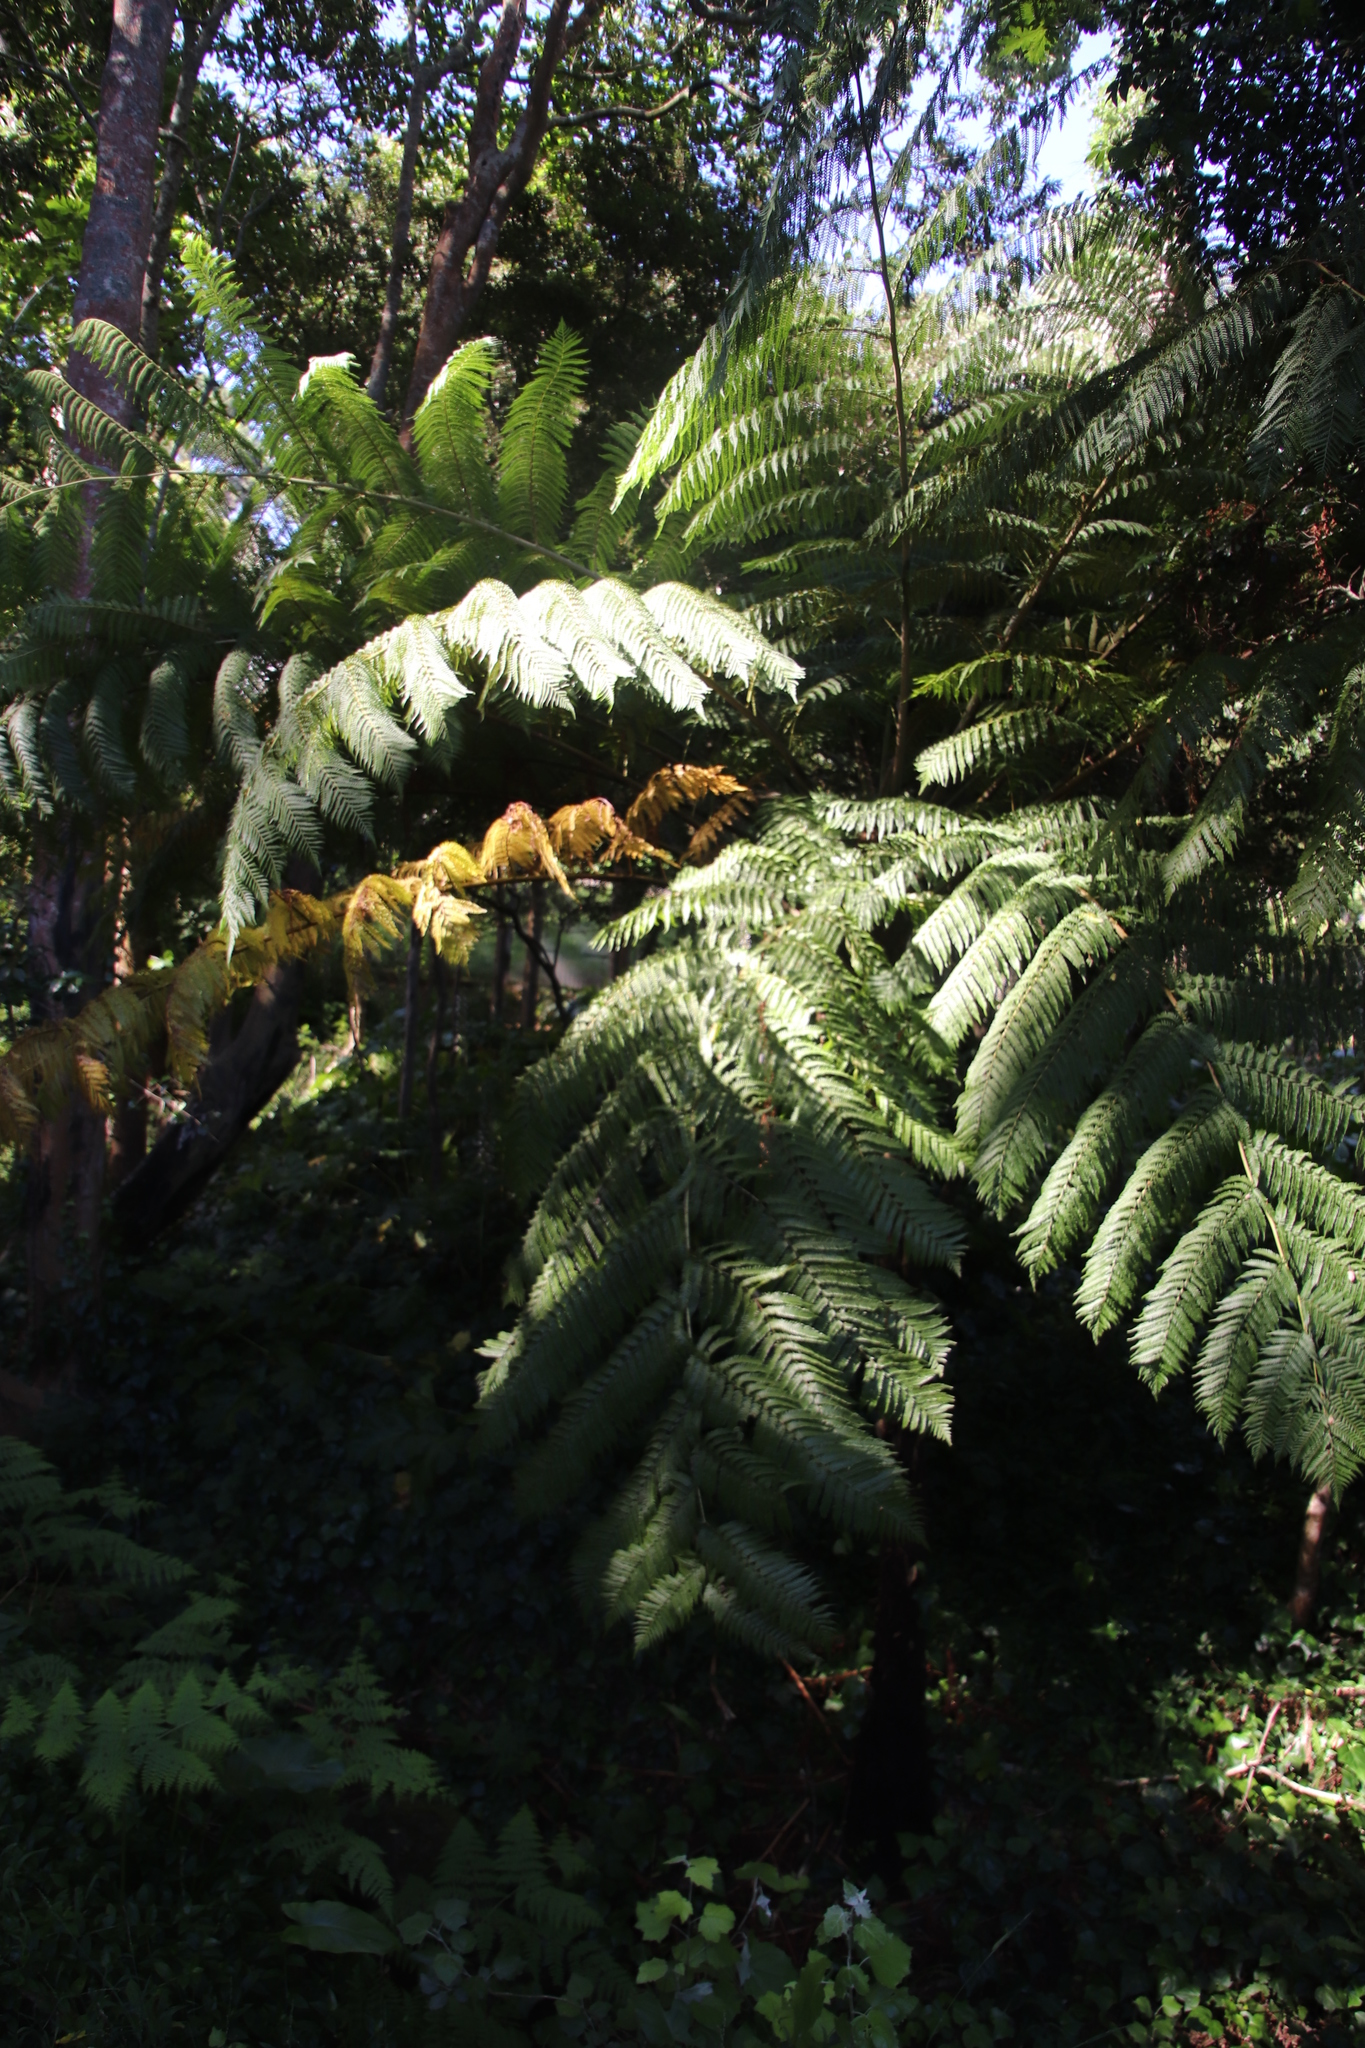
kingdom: Plantae
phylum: Tracheophyta
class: Polypodiopsida
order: Cyatheales
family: Cyatheaceae
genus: Sphaeropteris
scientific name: Sphaeropteris cooperi
